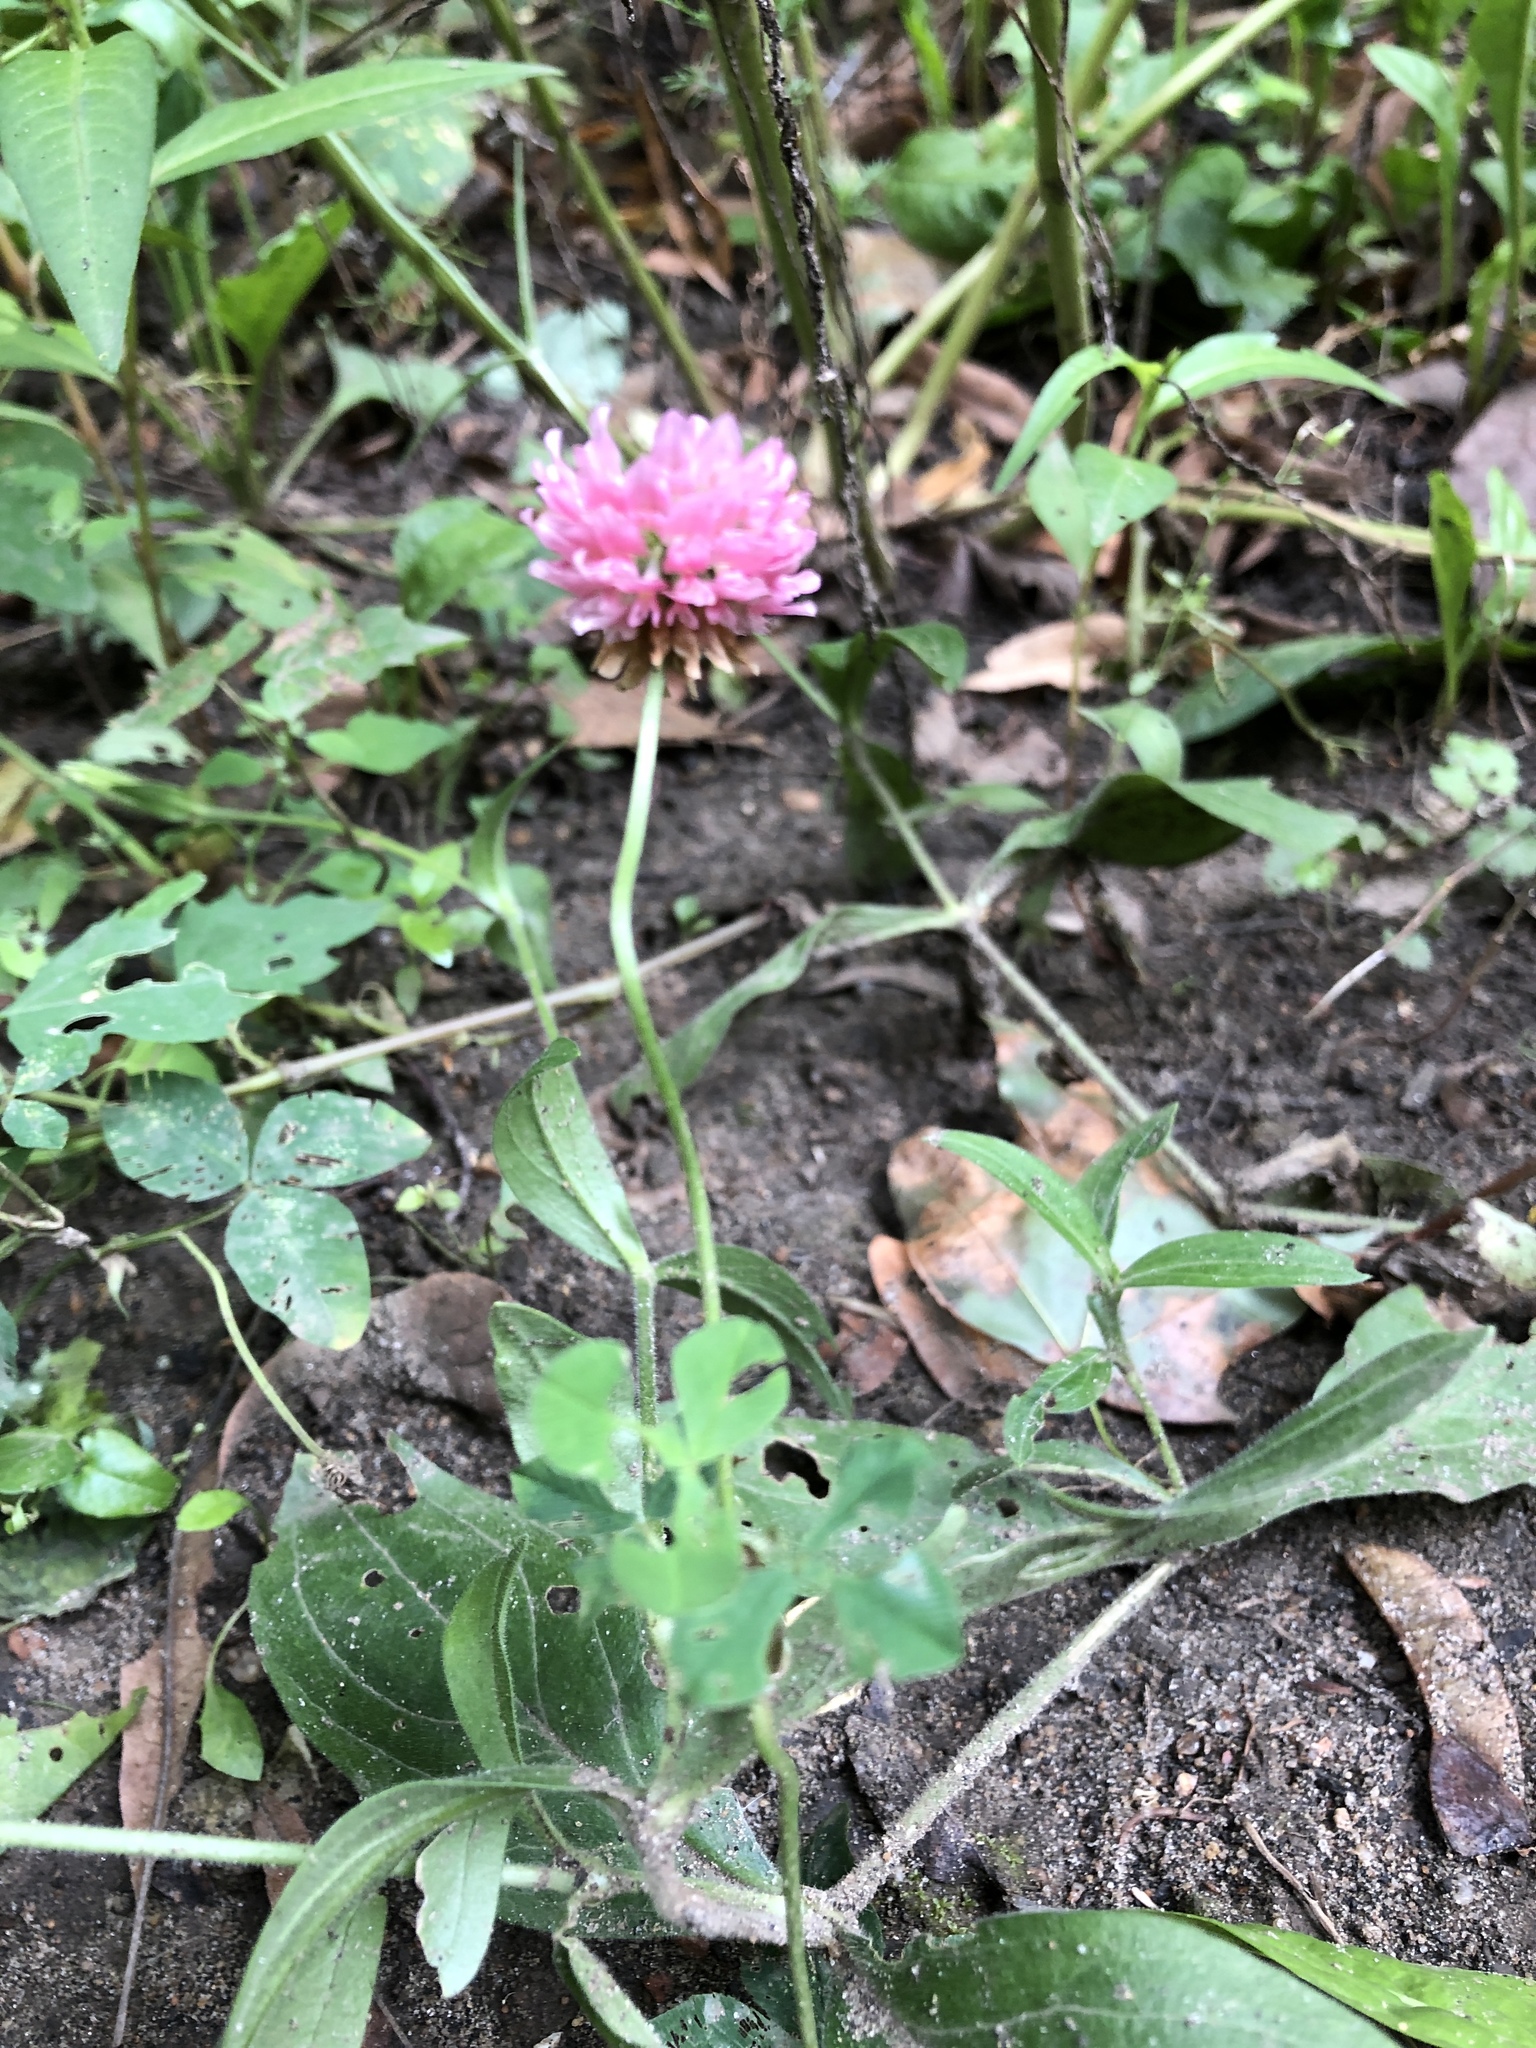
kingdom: Plantae
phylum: Tracheophyta
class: Magnoliopsida
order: Fabales
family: Fabaceae
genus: Trifolium
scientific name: Trifolium hybridum
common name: Alsike clover
